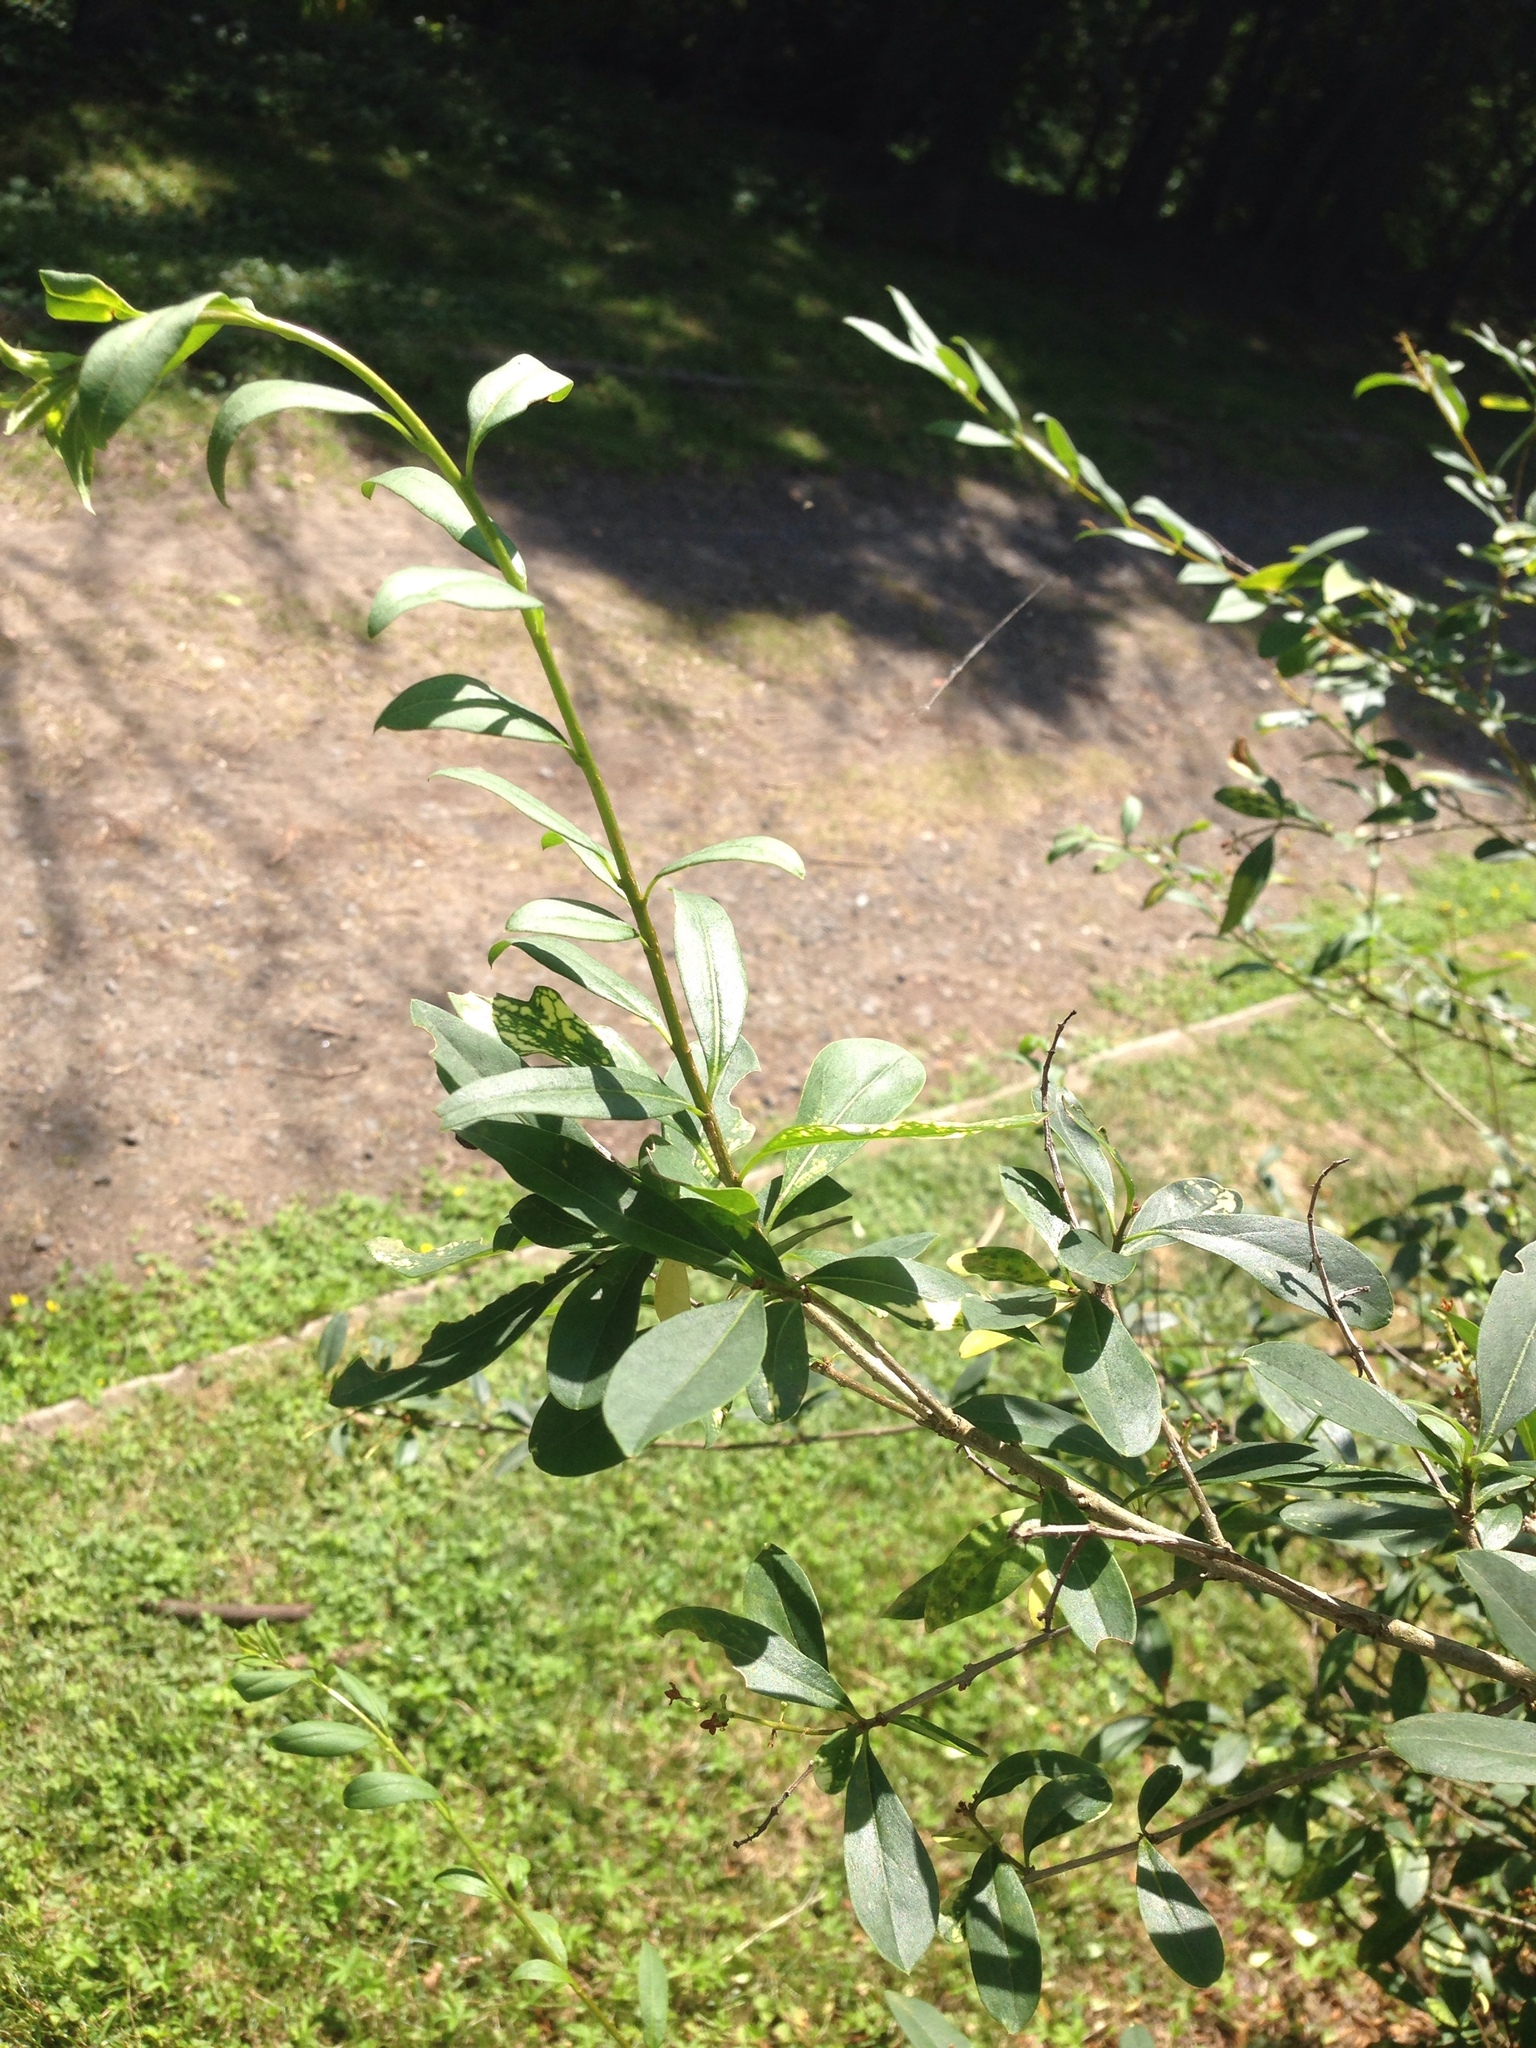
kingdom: Plantae
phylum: Tracheophyta
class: Magnoliopsida
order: Lamiales
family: Oleaceae
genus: Ligustrum
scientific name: Ligustrum vulgare
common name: Wild privet
